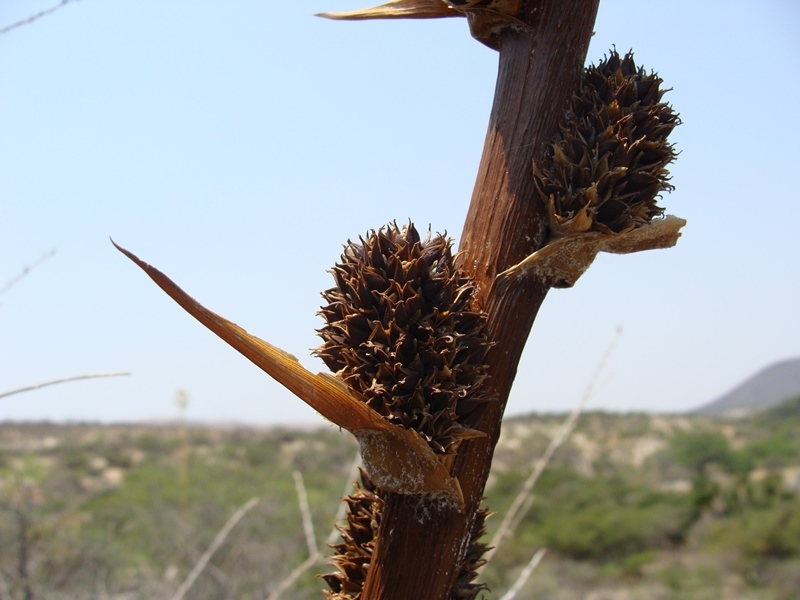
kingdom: Plantae
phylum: Tracheophyta
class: Liliopsida
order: Poales
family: Bromeliaceae
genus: Hechtia
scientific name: Hechtia confusa
